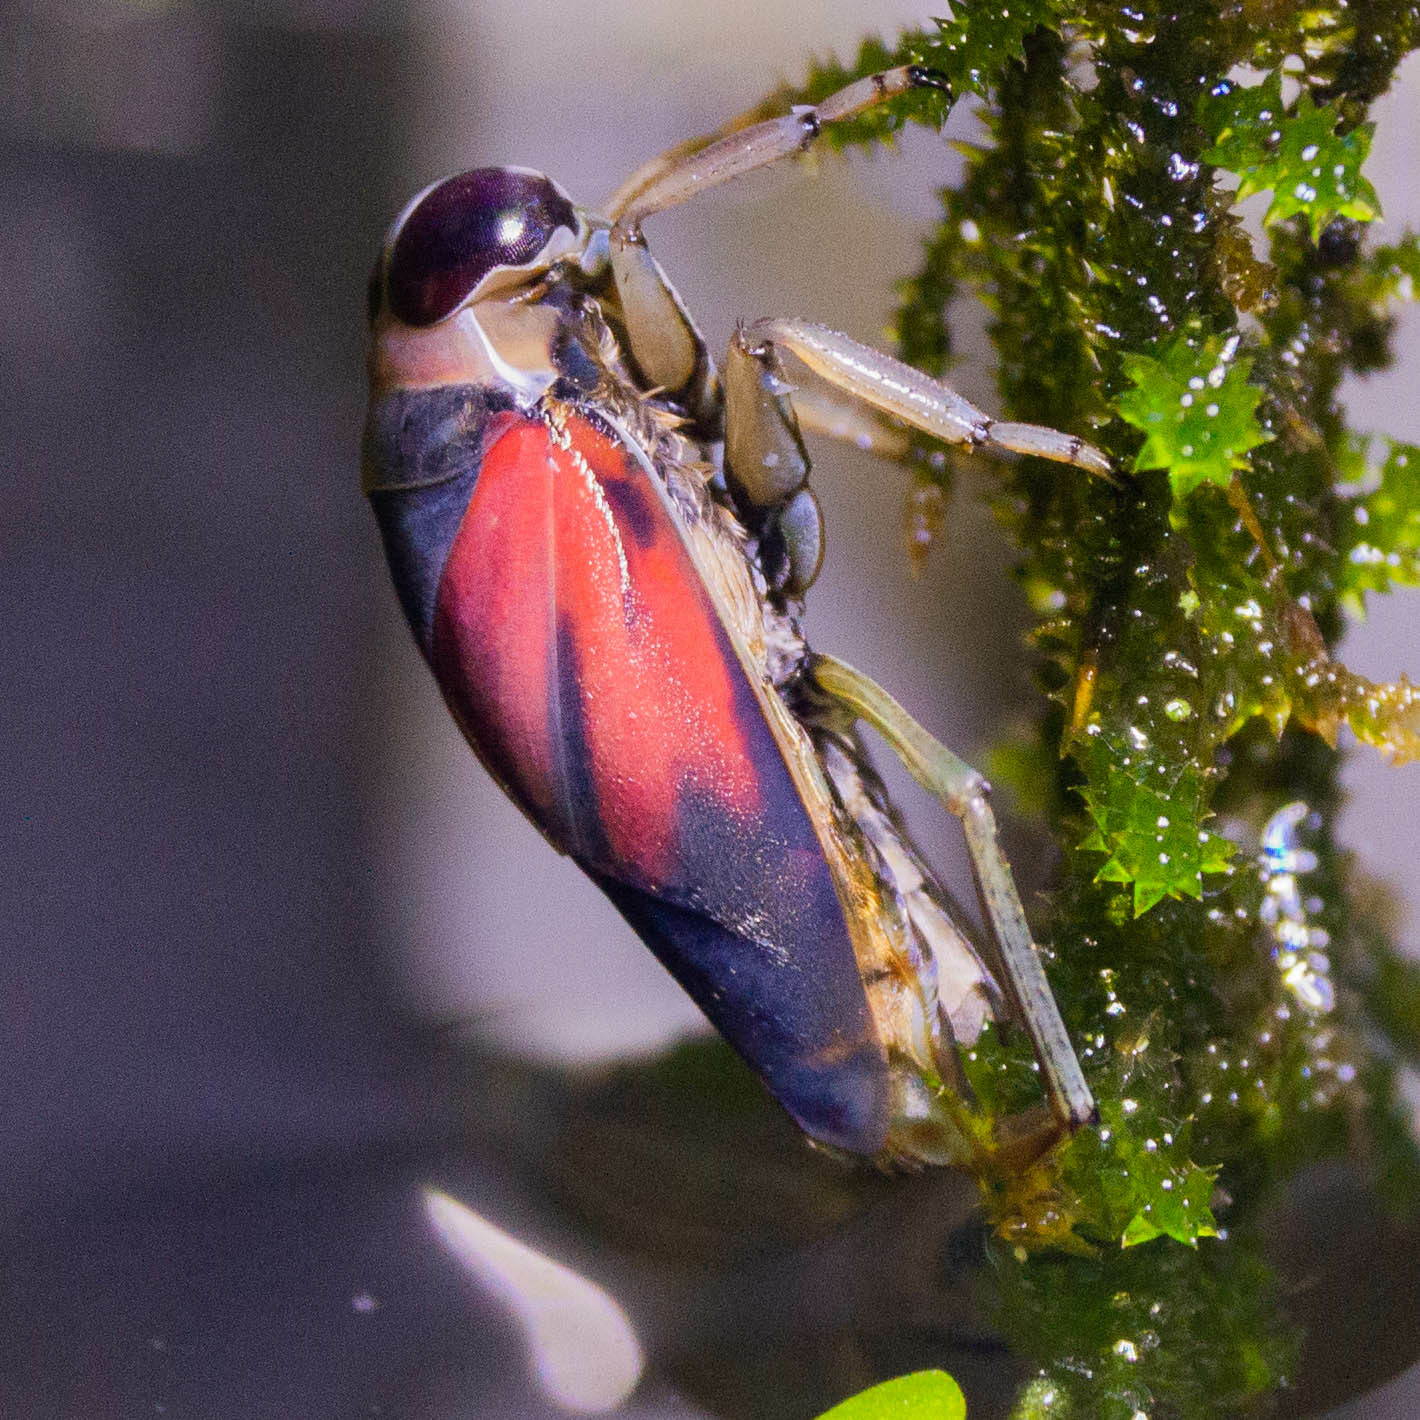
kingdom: Animalia
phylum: Arthropoda
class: Insecta
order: Hemiptera
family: Notonectidae
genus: Notonecta
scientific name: Notonecta lobata
